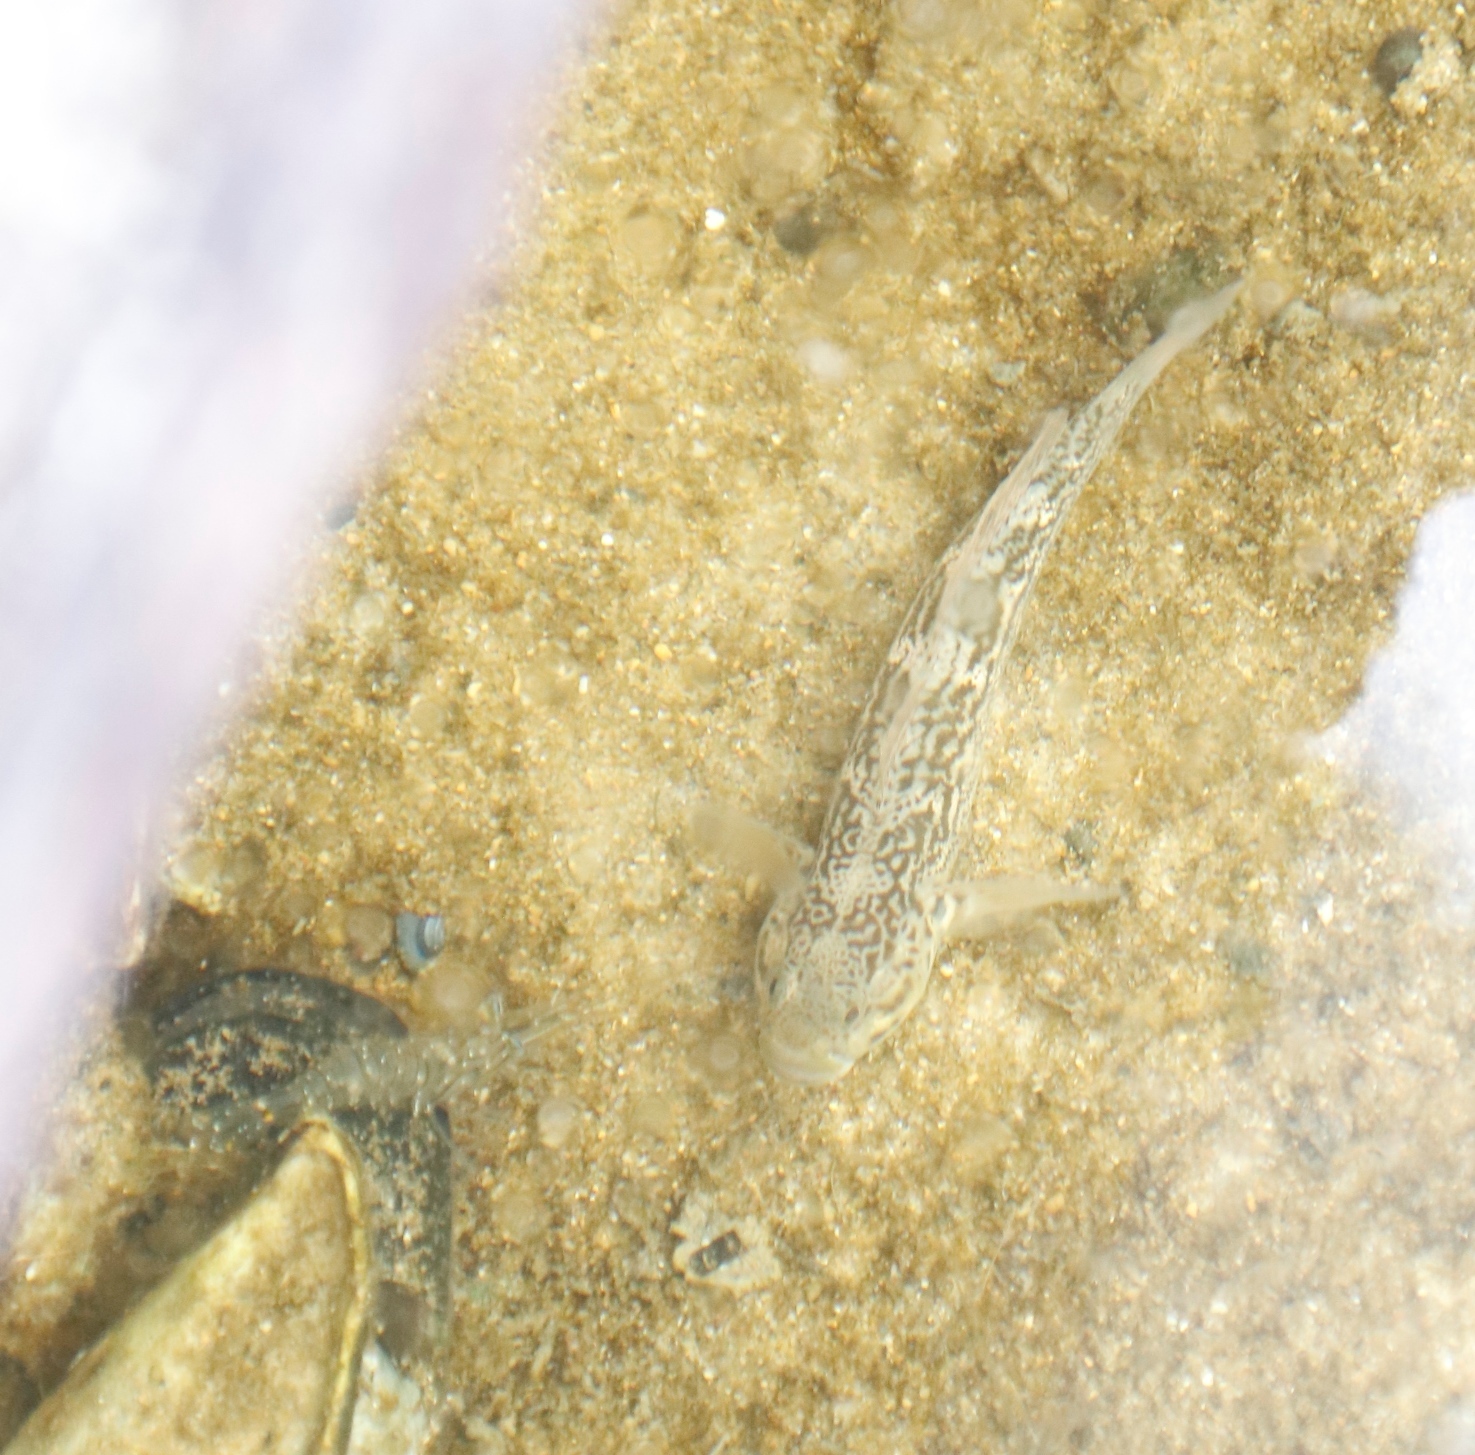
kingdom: Animalia
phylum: Chordata
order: Perciformes
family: Gobiidae
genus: Caffrogobius
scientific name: Caffrogobius caffer
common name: Banded goby
